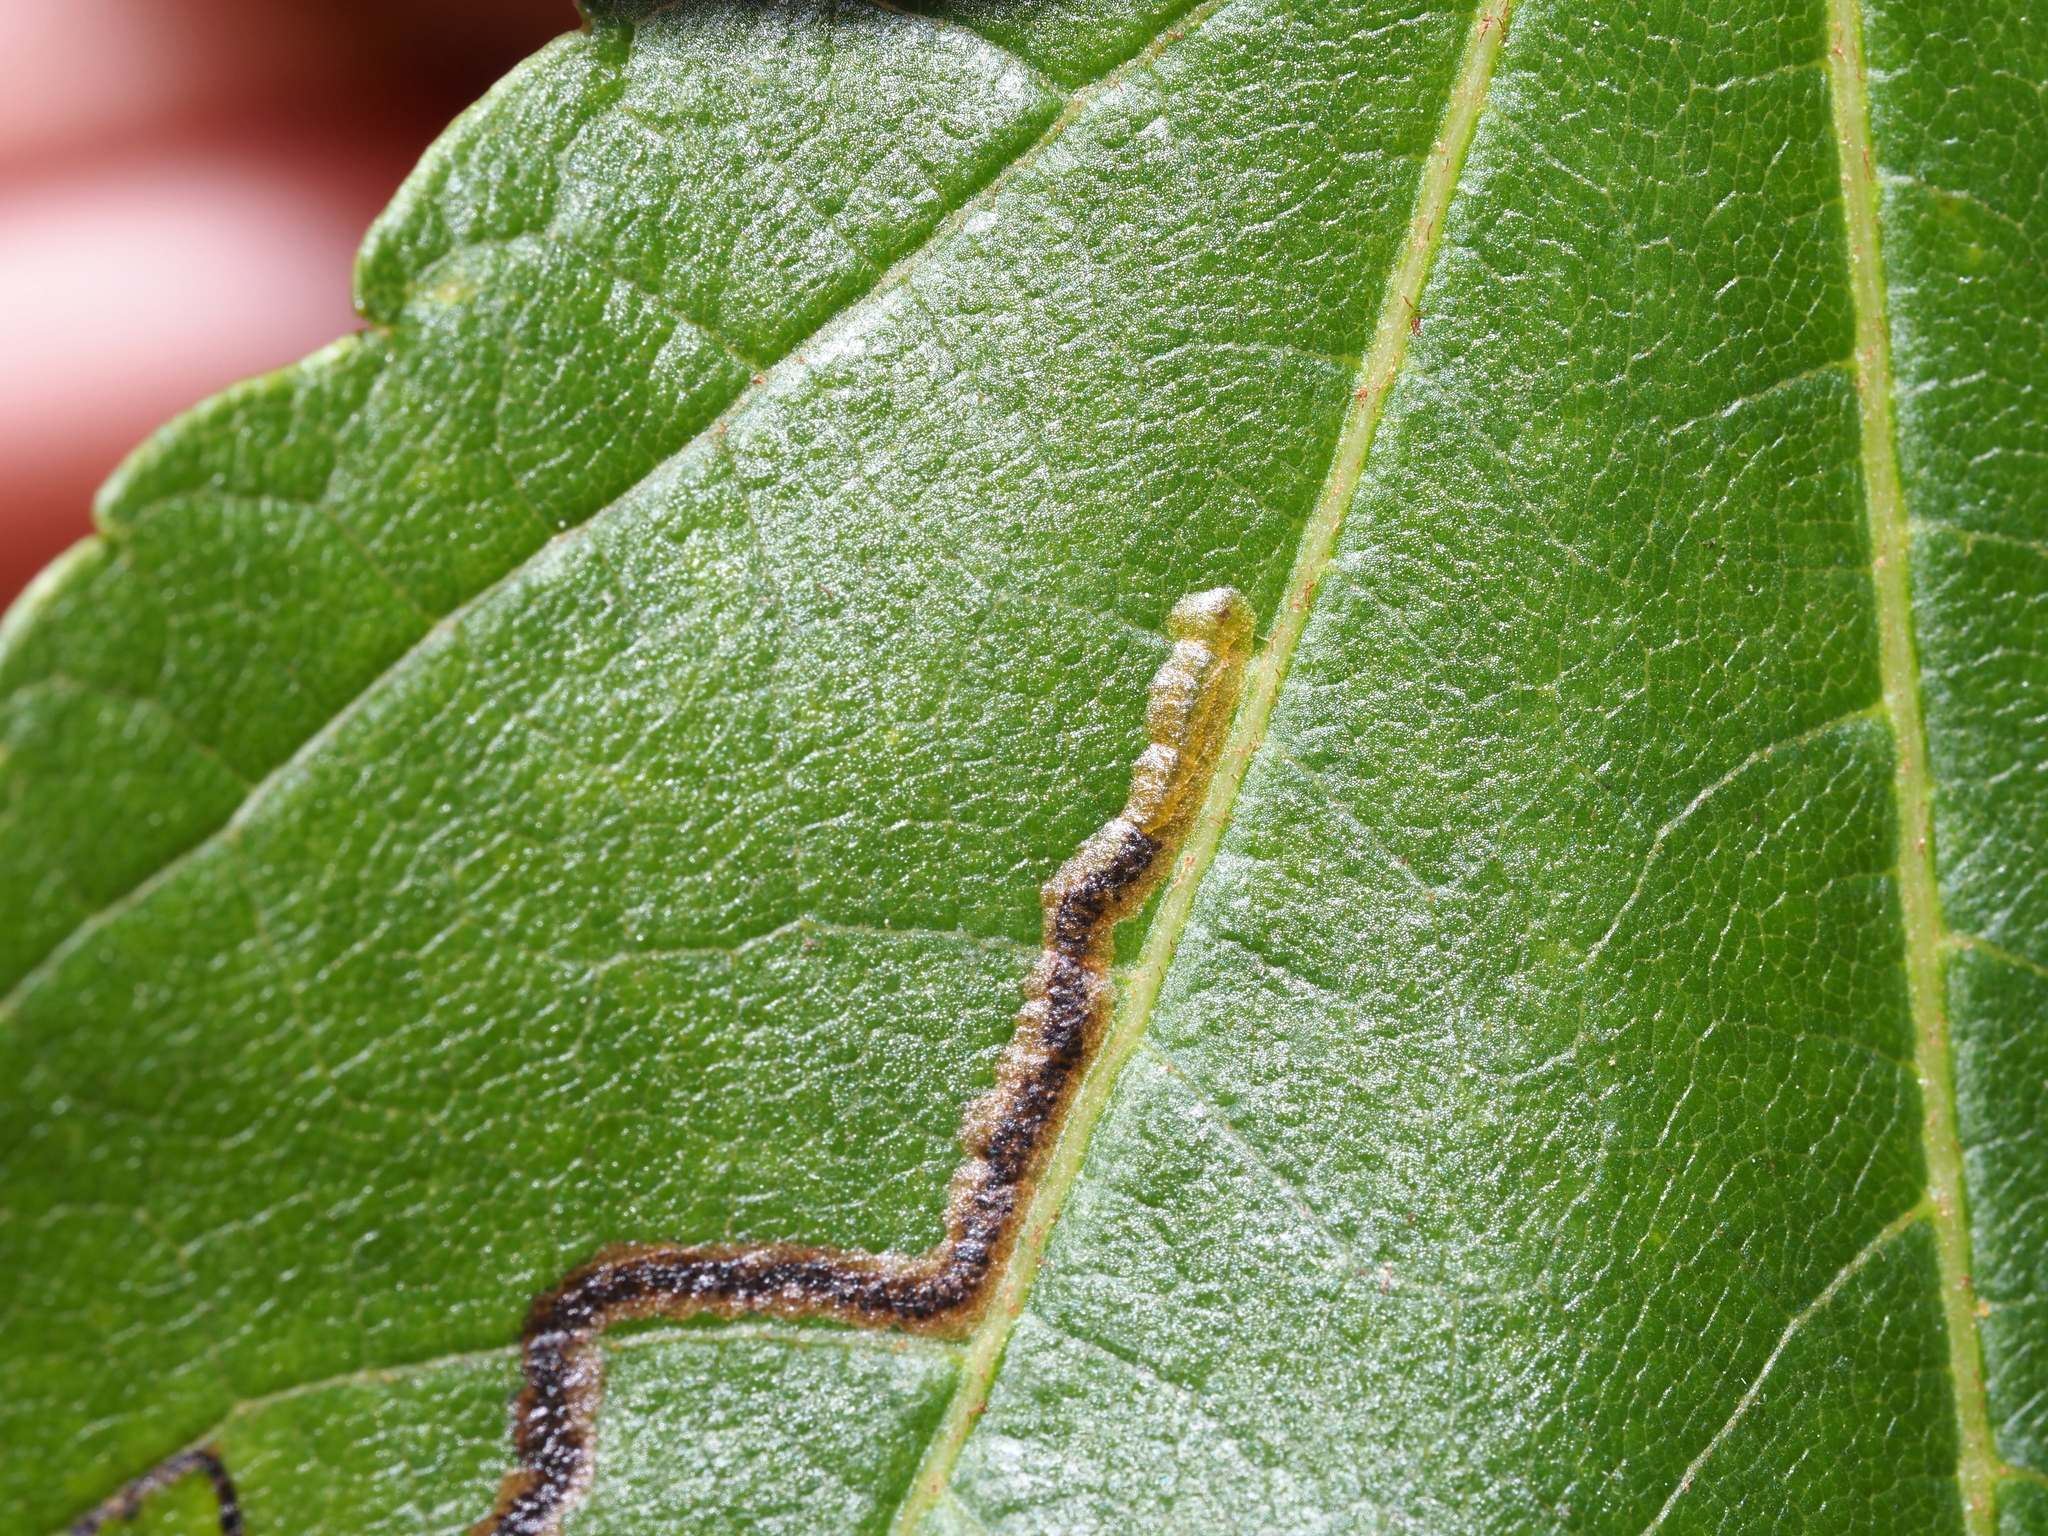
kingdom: Animalia
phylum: Arthropoda
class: Insecta
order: Lepidoptera
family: Nepticulidae
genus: Glaucolepis
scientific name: Glaucolepis saccharella
